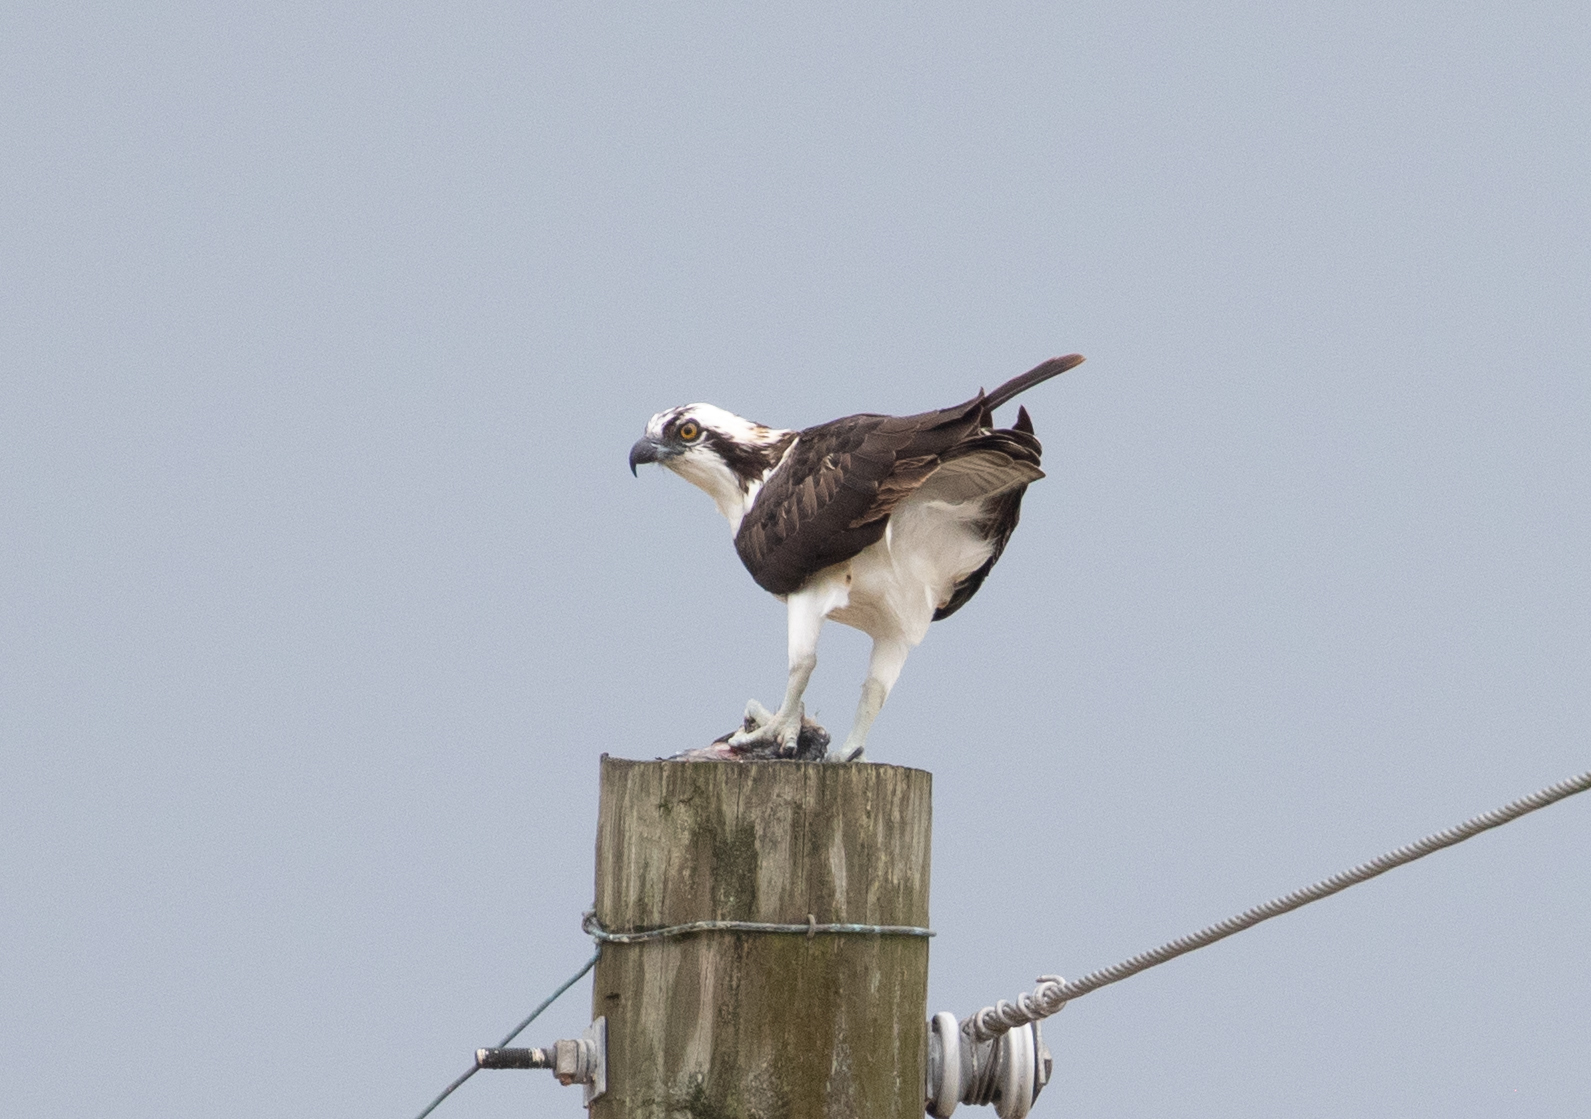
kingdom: Animalia
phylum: Chordata
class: Aves
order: Accipitriformes
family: Pandionidae
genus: Pandion
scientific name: Pandion haliaetus
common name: Osprey
